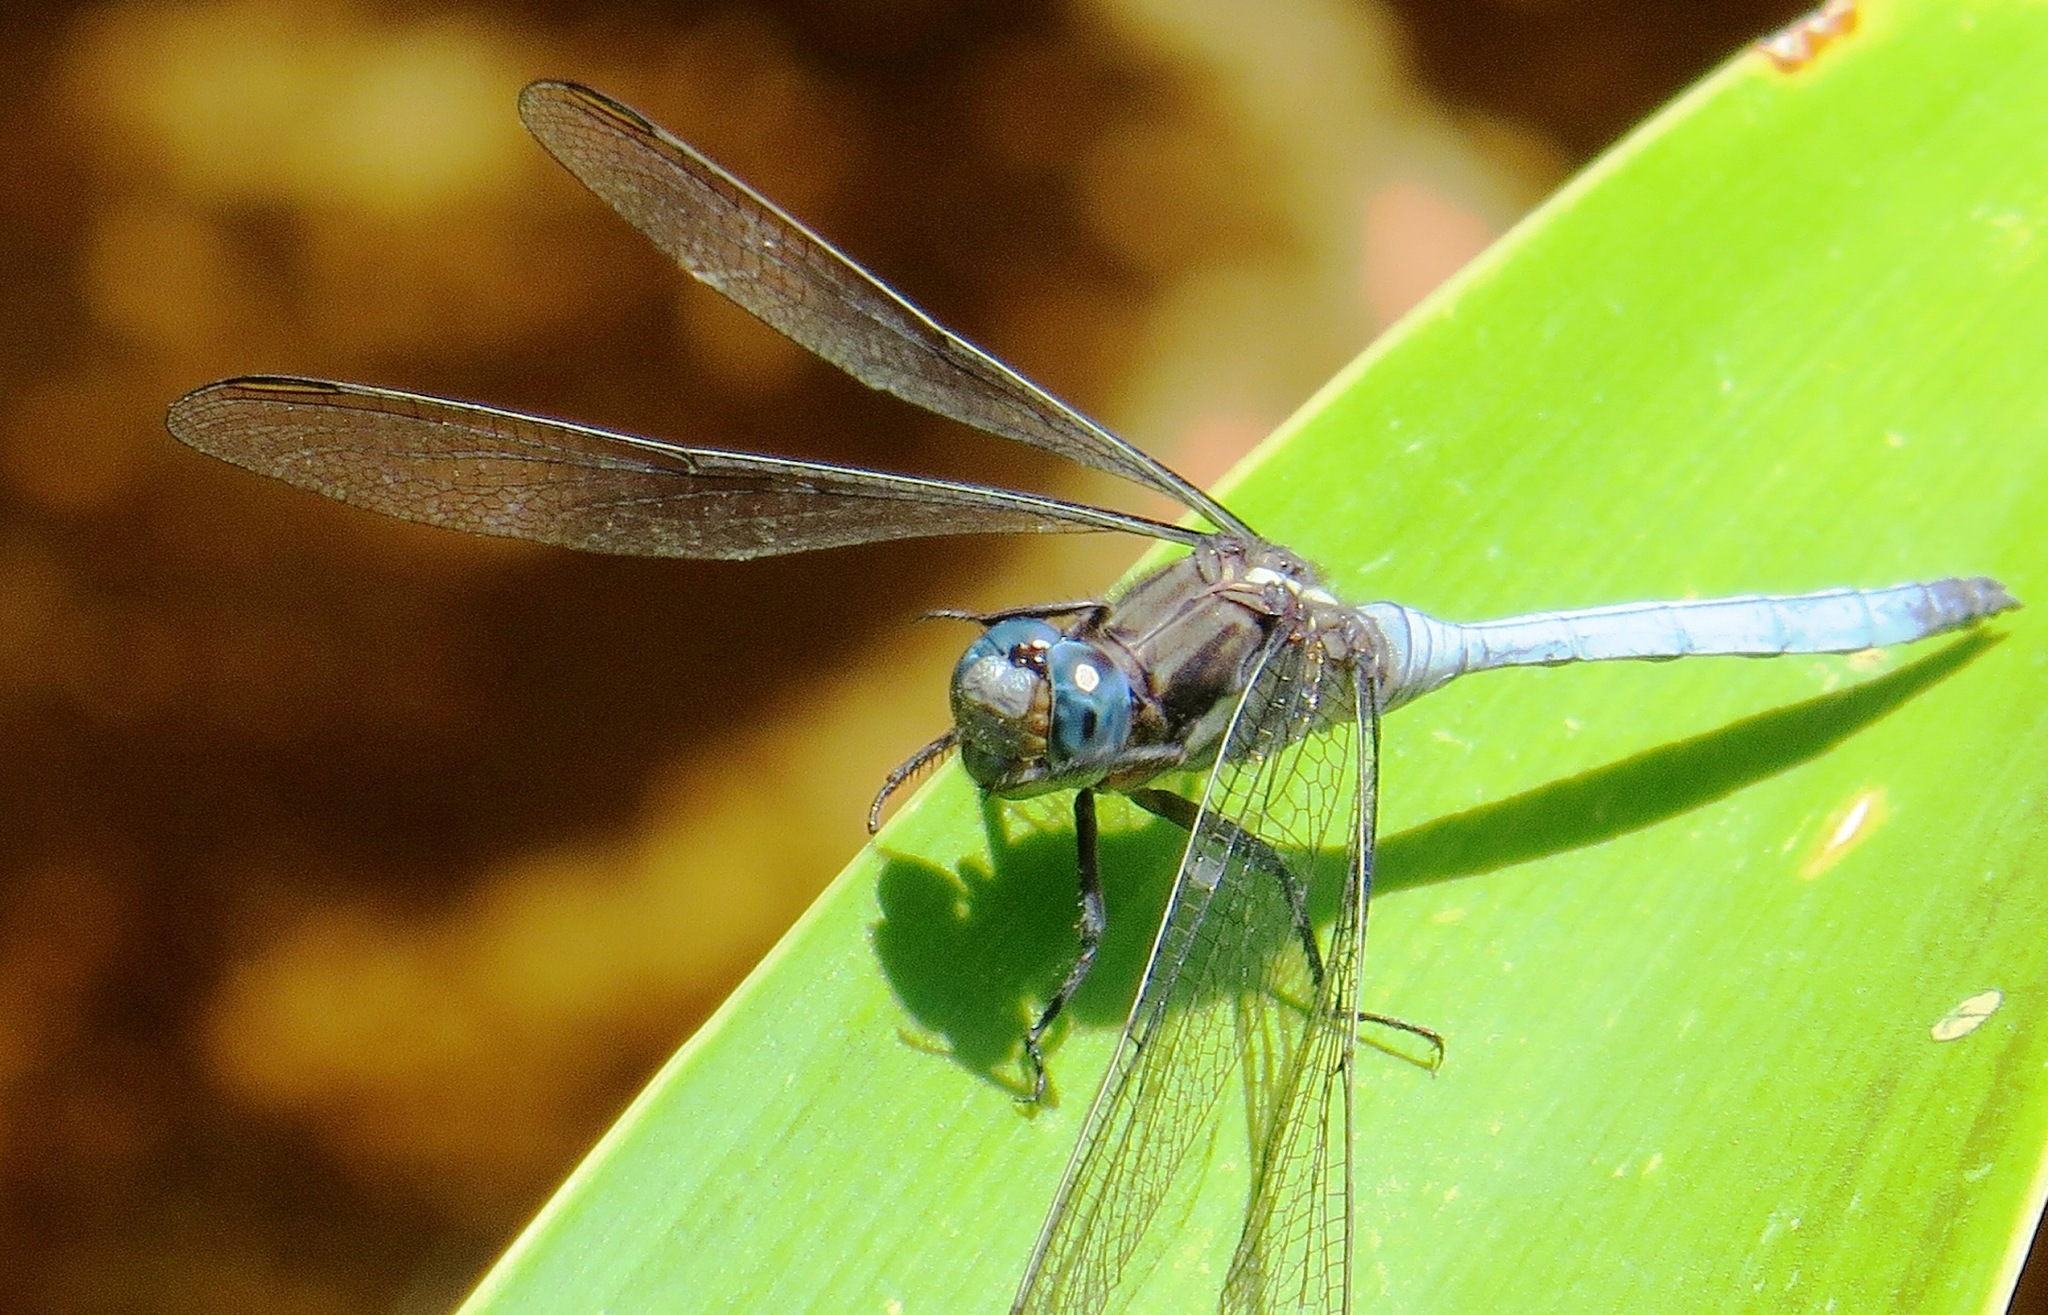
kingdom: Animalia
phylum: Arthropoda
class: Insecta
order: Odonata
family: Libellulidae
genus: Orthetrum
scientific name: Orthetrum julia
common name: Julia skimmer
